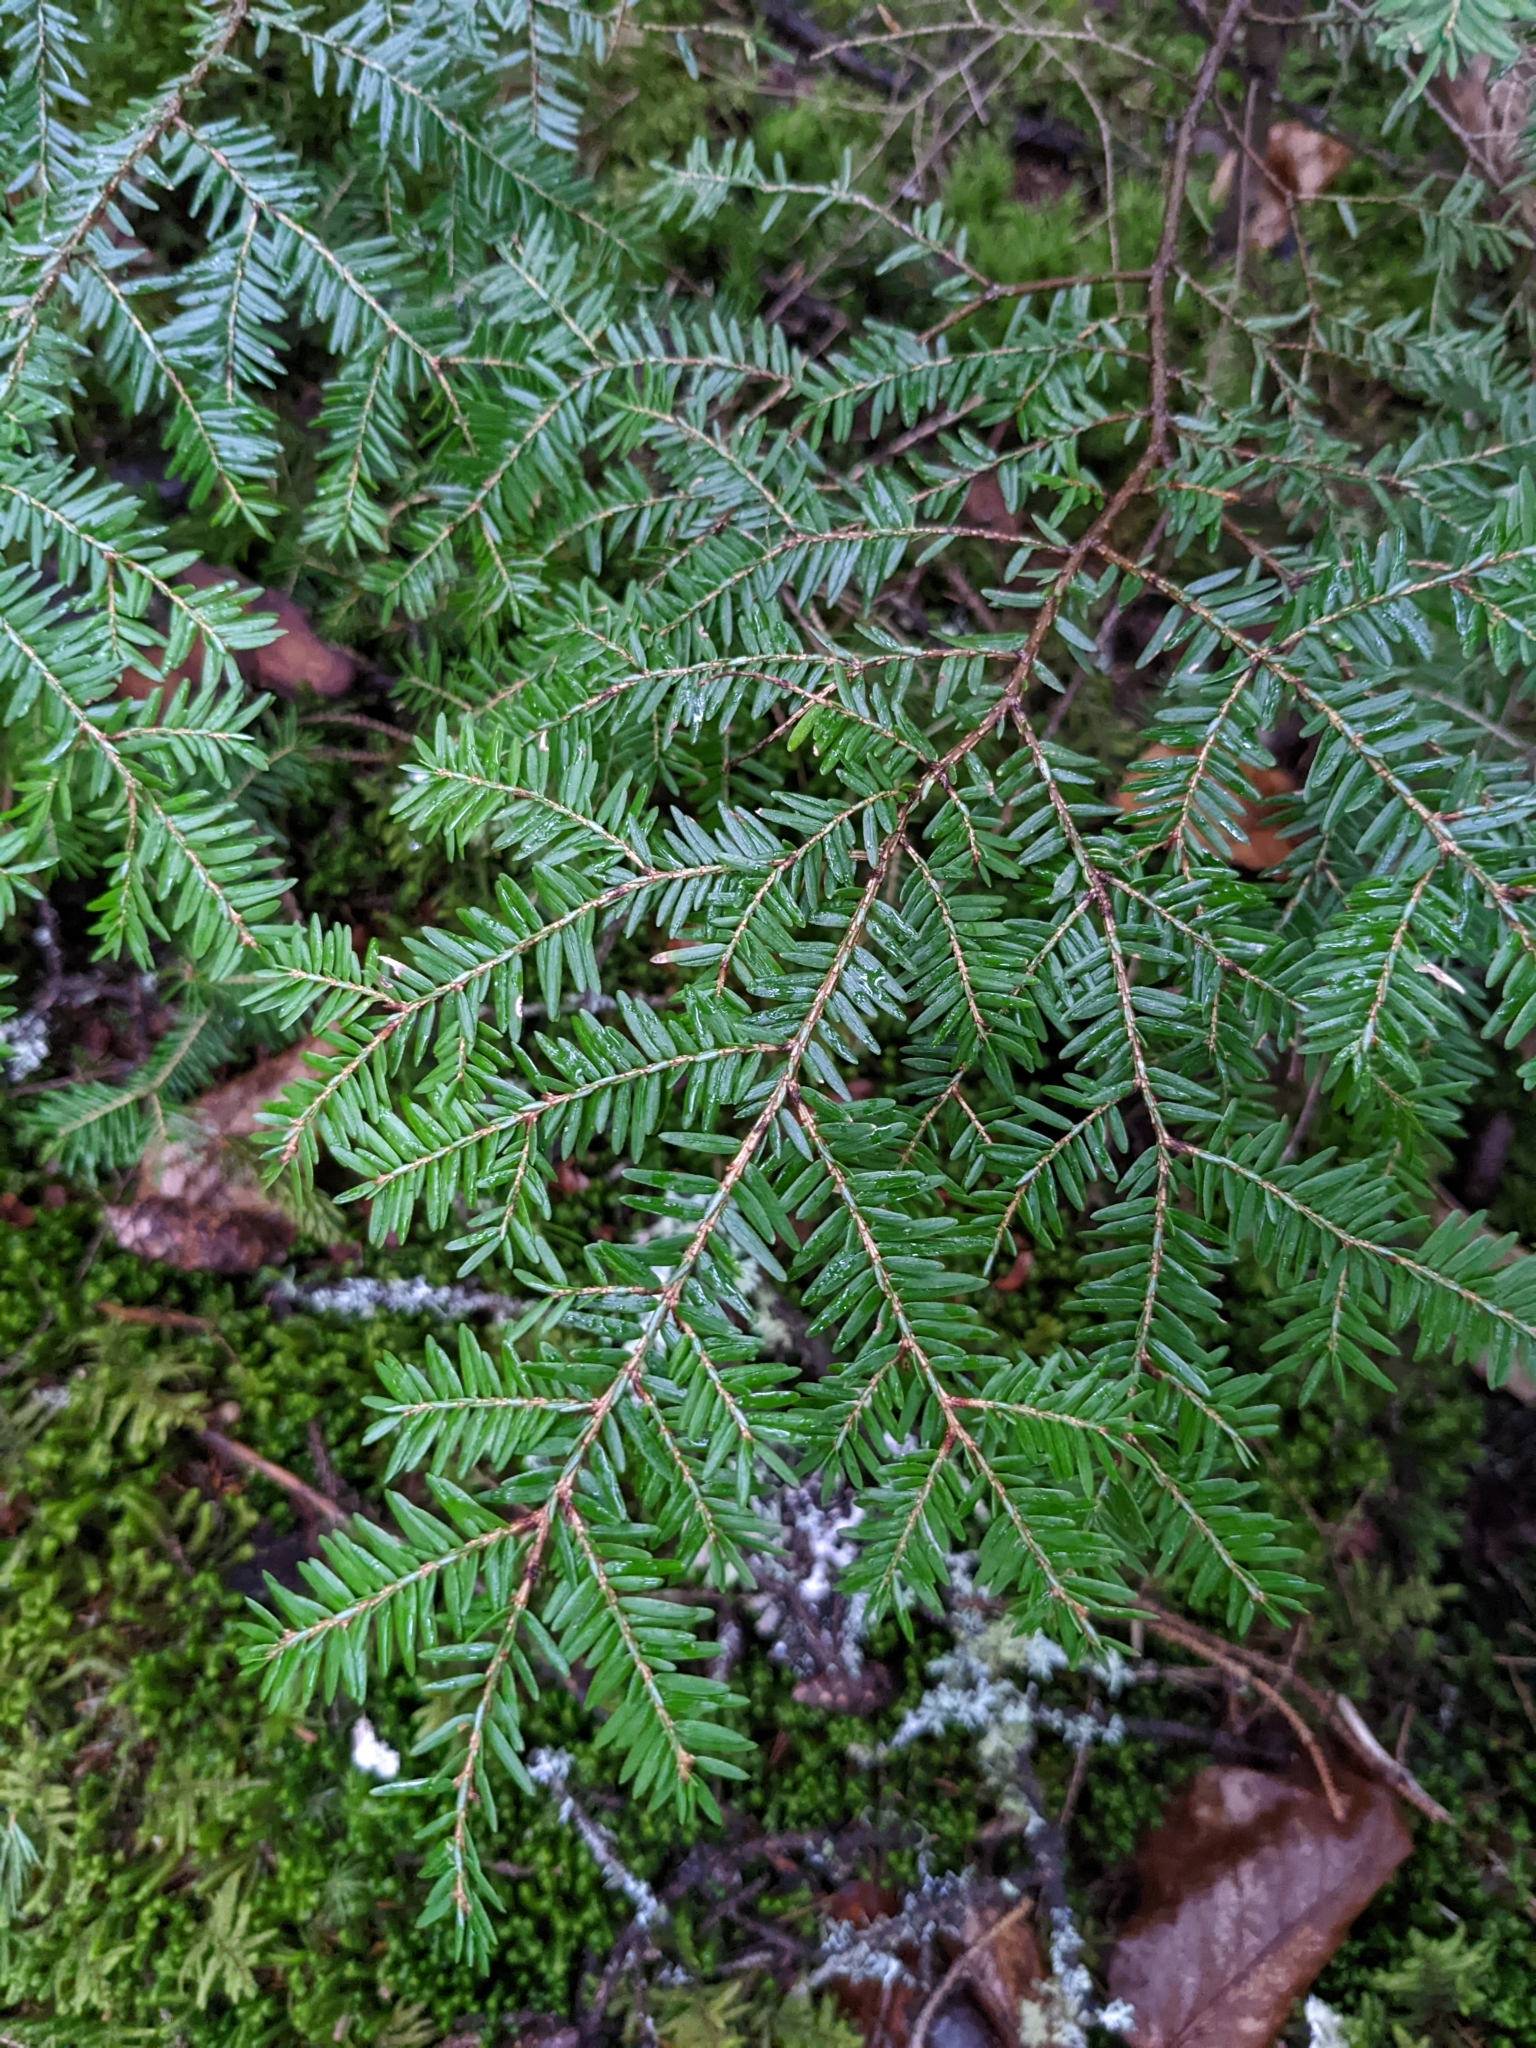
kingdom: Plantae
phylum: Tracheophyta
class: Pinopsida
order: Pinales
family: Pinaceae
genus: Tsuga
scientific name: Tsuga canadensis
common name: Eastern hemlock
